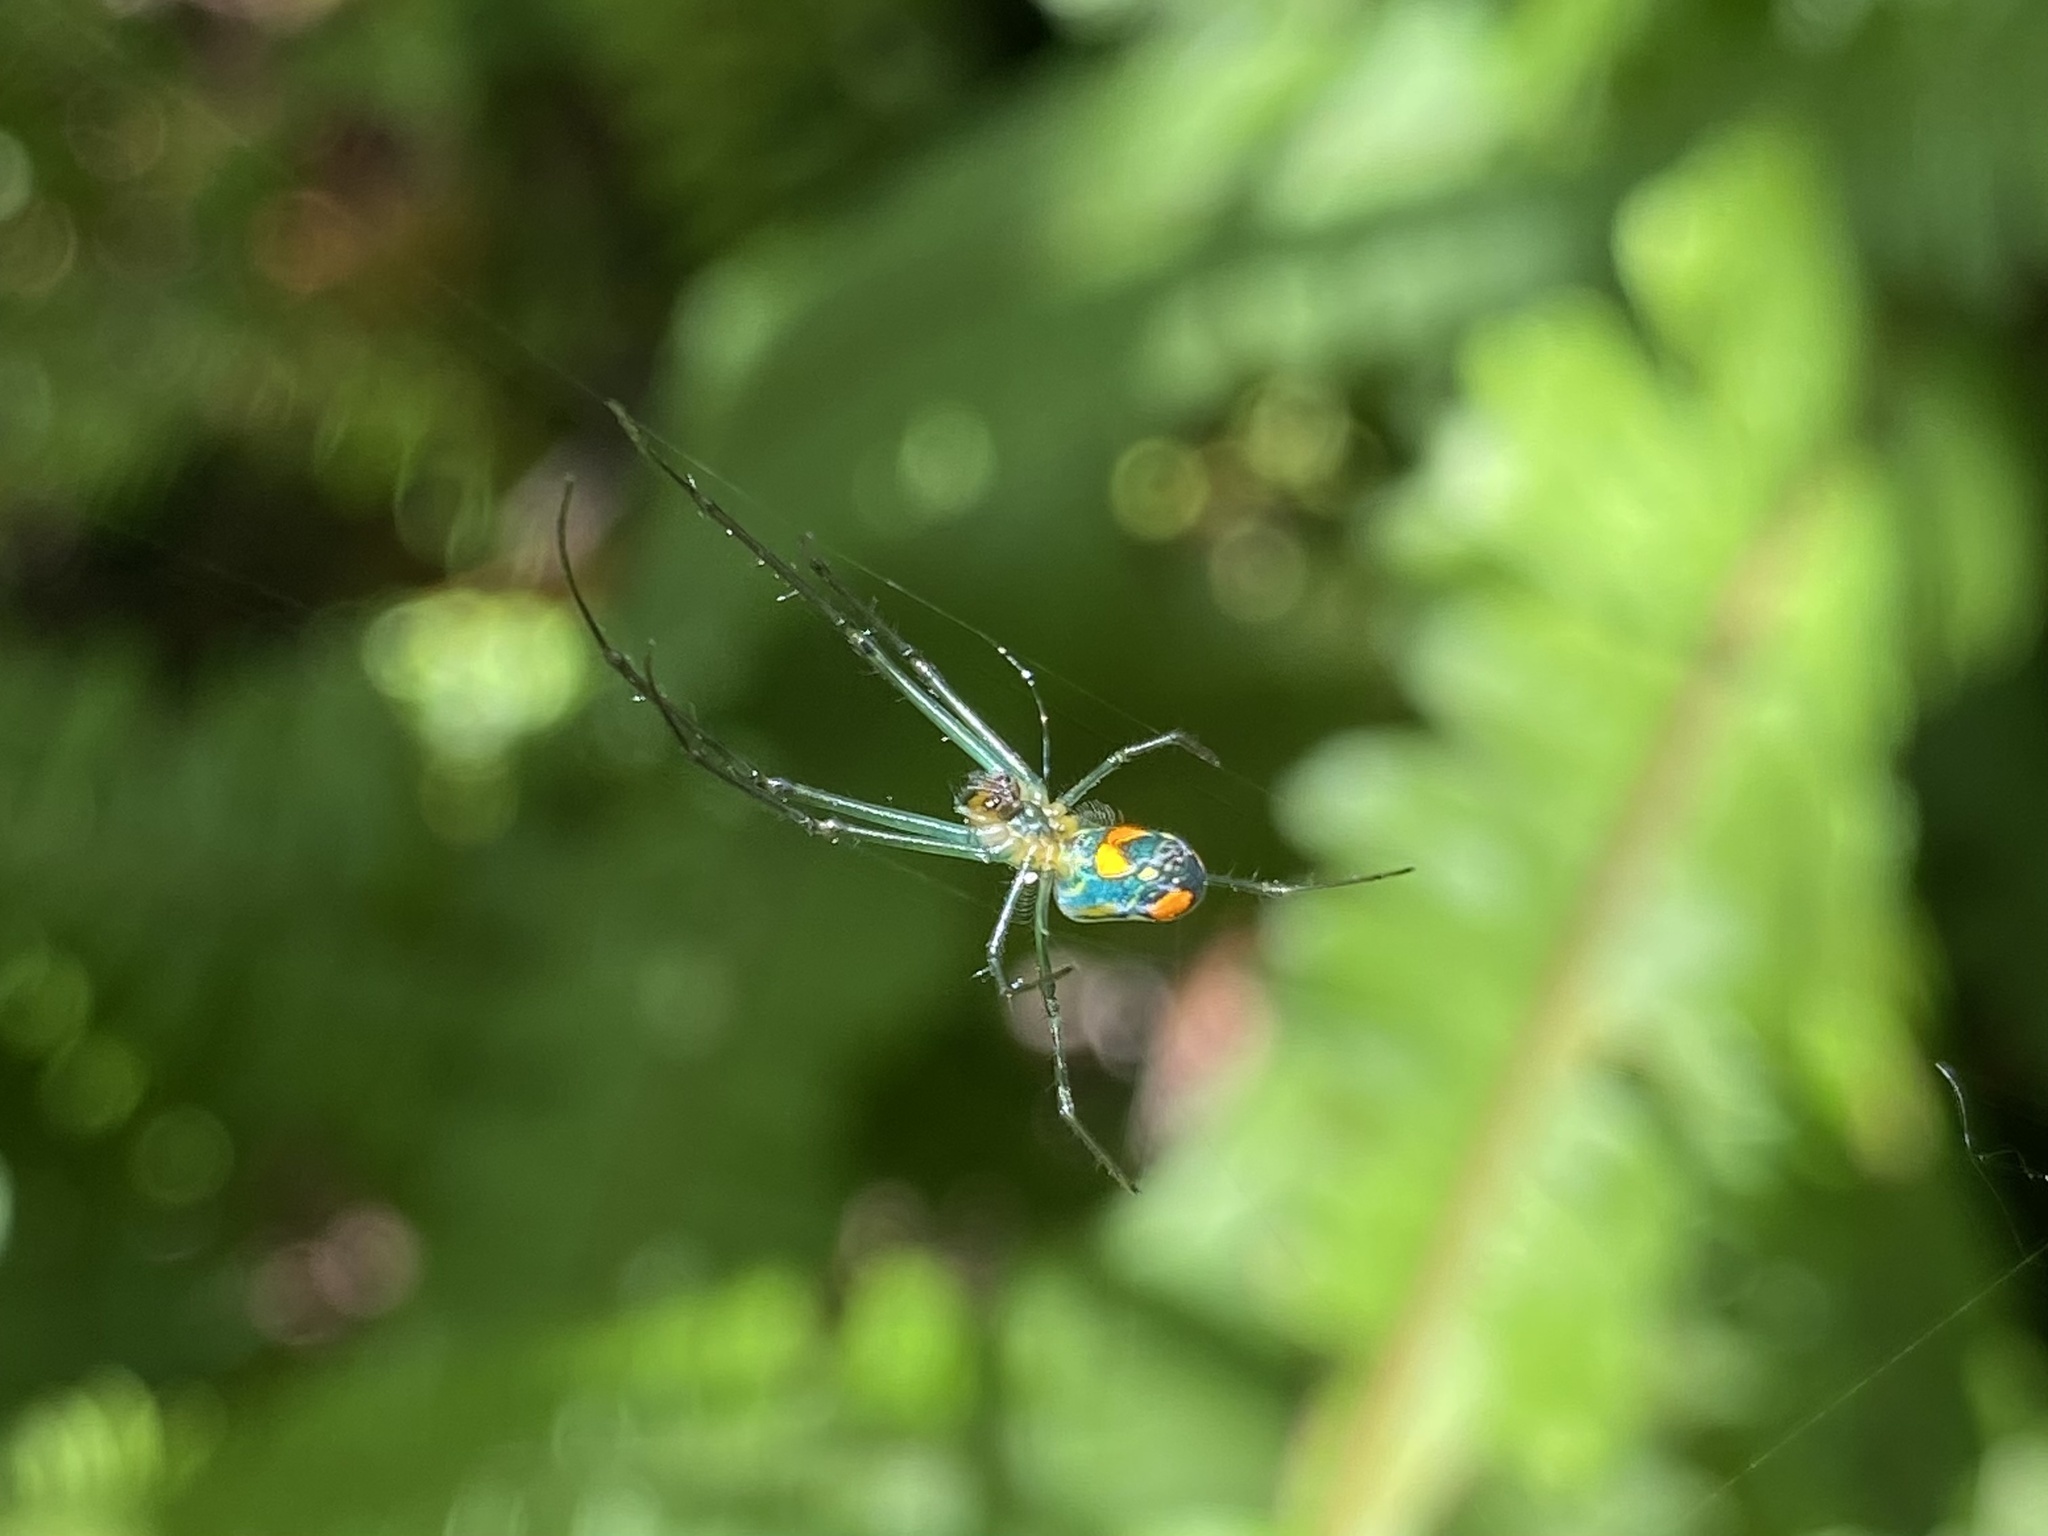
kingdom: Animalia
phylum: Arthropoda
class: Arachnida
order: Araneae
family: Tetragnathidae
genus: Leucauge
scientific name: Leucauge argyrobapta
